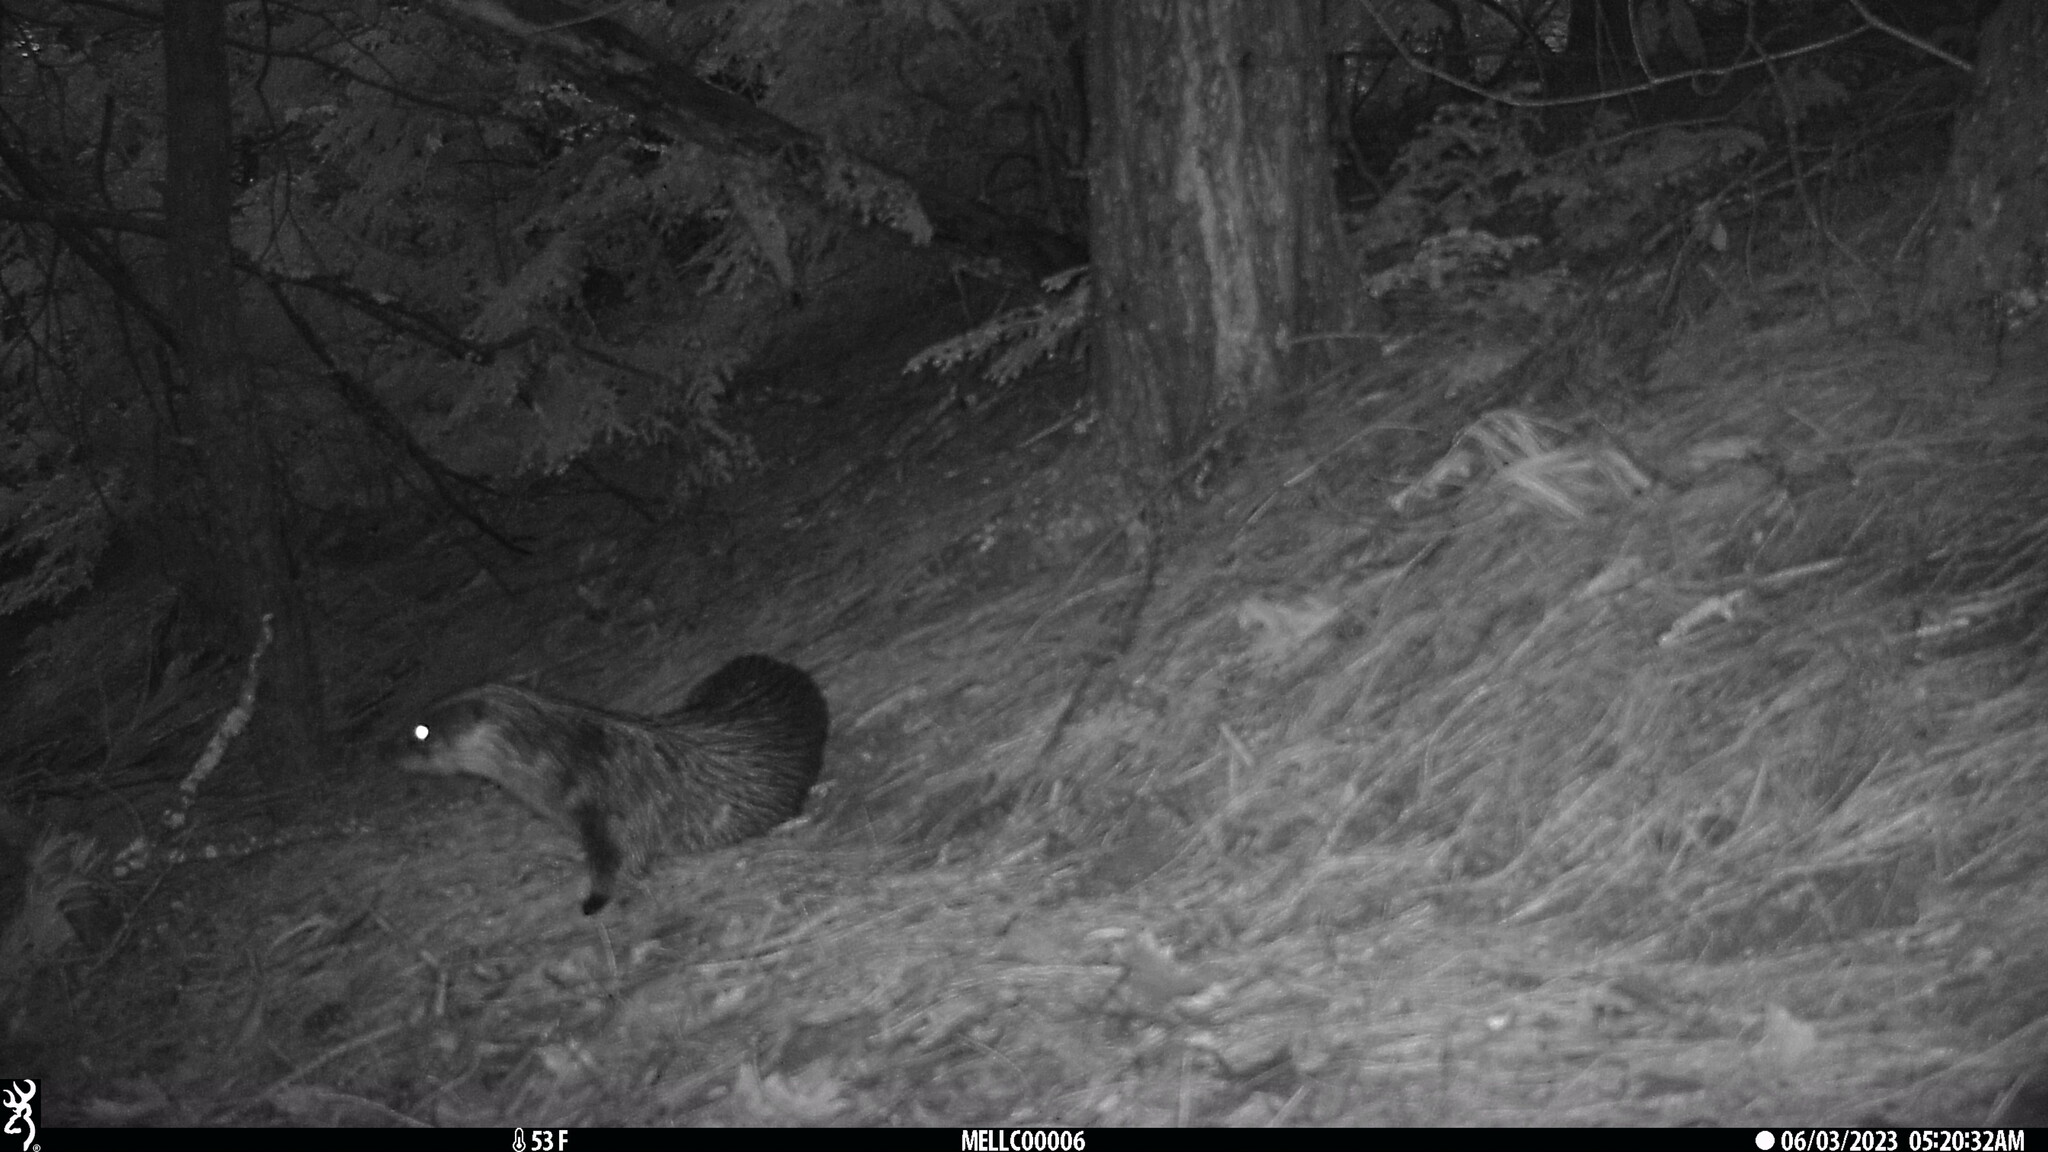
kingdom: Animalia
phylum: Chordata
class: Mammalia
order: Carnivora
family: Mustelidae
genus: Lontra
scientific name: Lontra canadensis
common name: North american river otter
